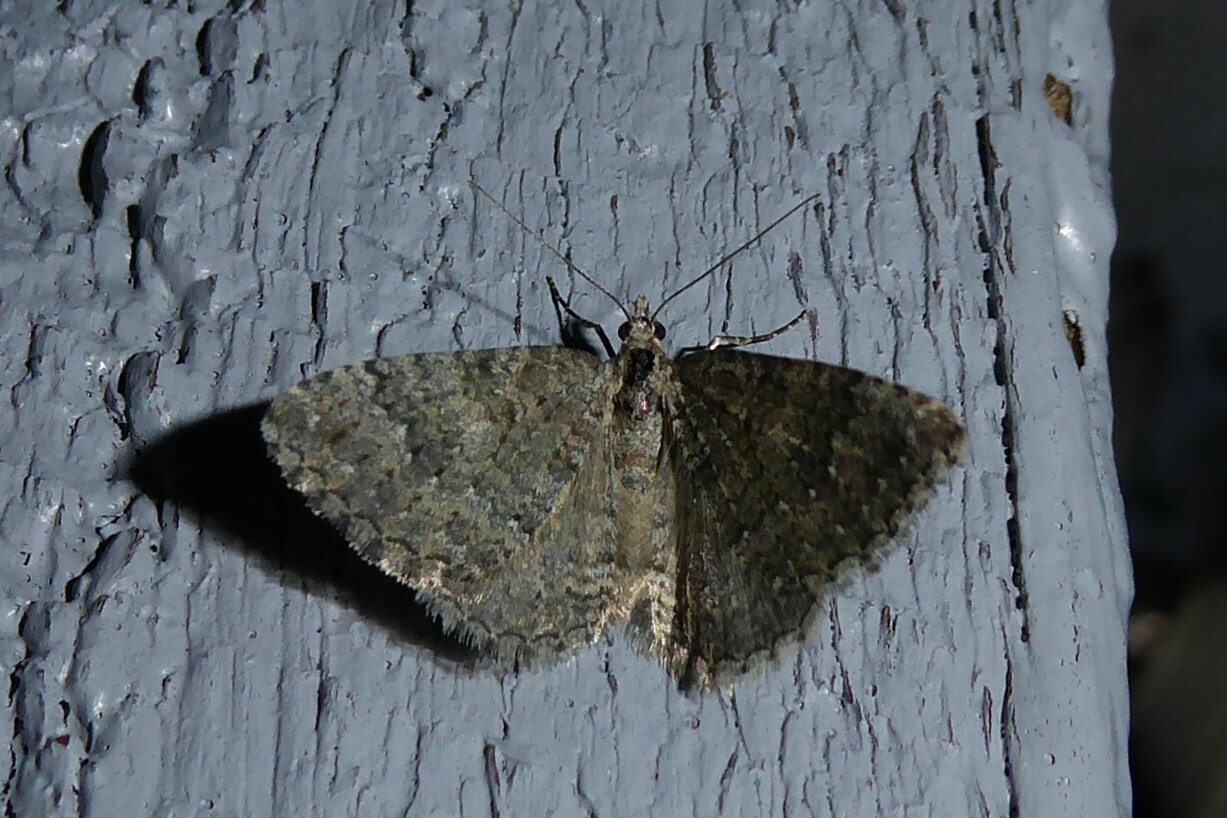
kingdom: Animalia
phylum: Arthropoda
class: Insecta
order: Lepidoptera
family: Geometridae
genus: Helastia
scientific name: Helastia corcularia
